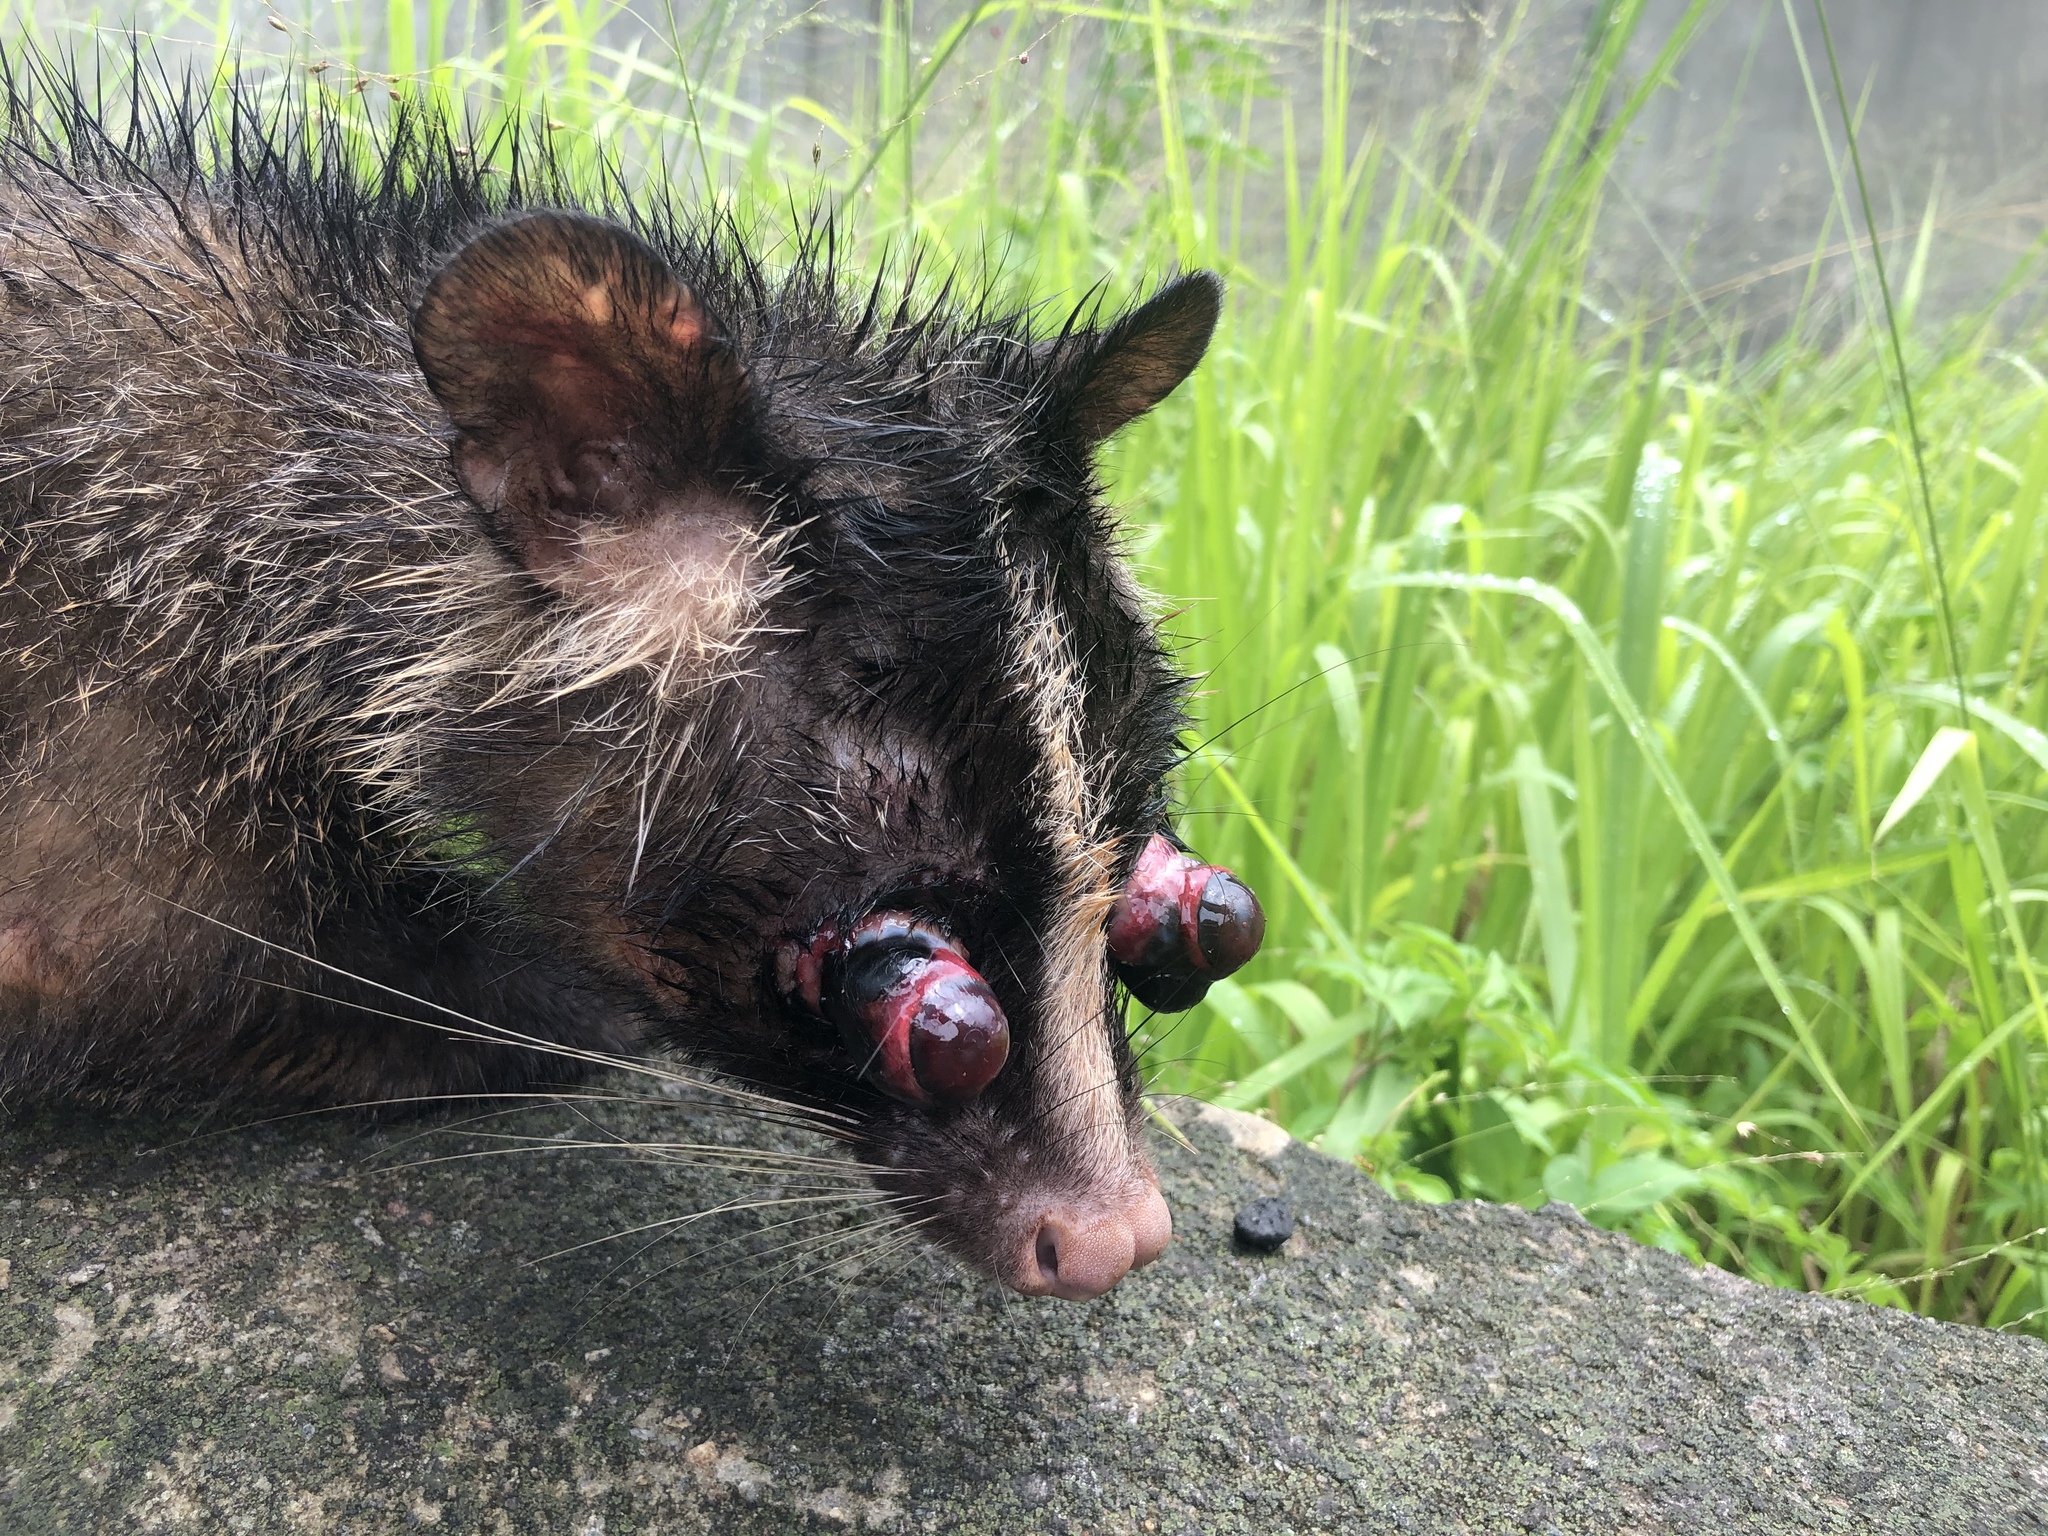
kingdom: Animalia
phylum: Chordata
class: Mammalia
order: Carnivora
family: Viverridae
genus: Paguma
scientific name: Paguma larvata
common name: Masked palm civet
